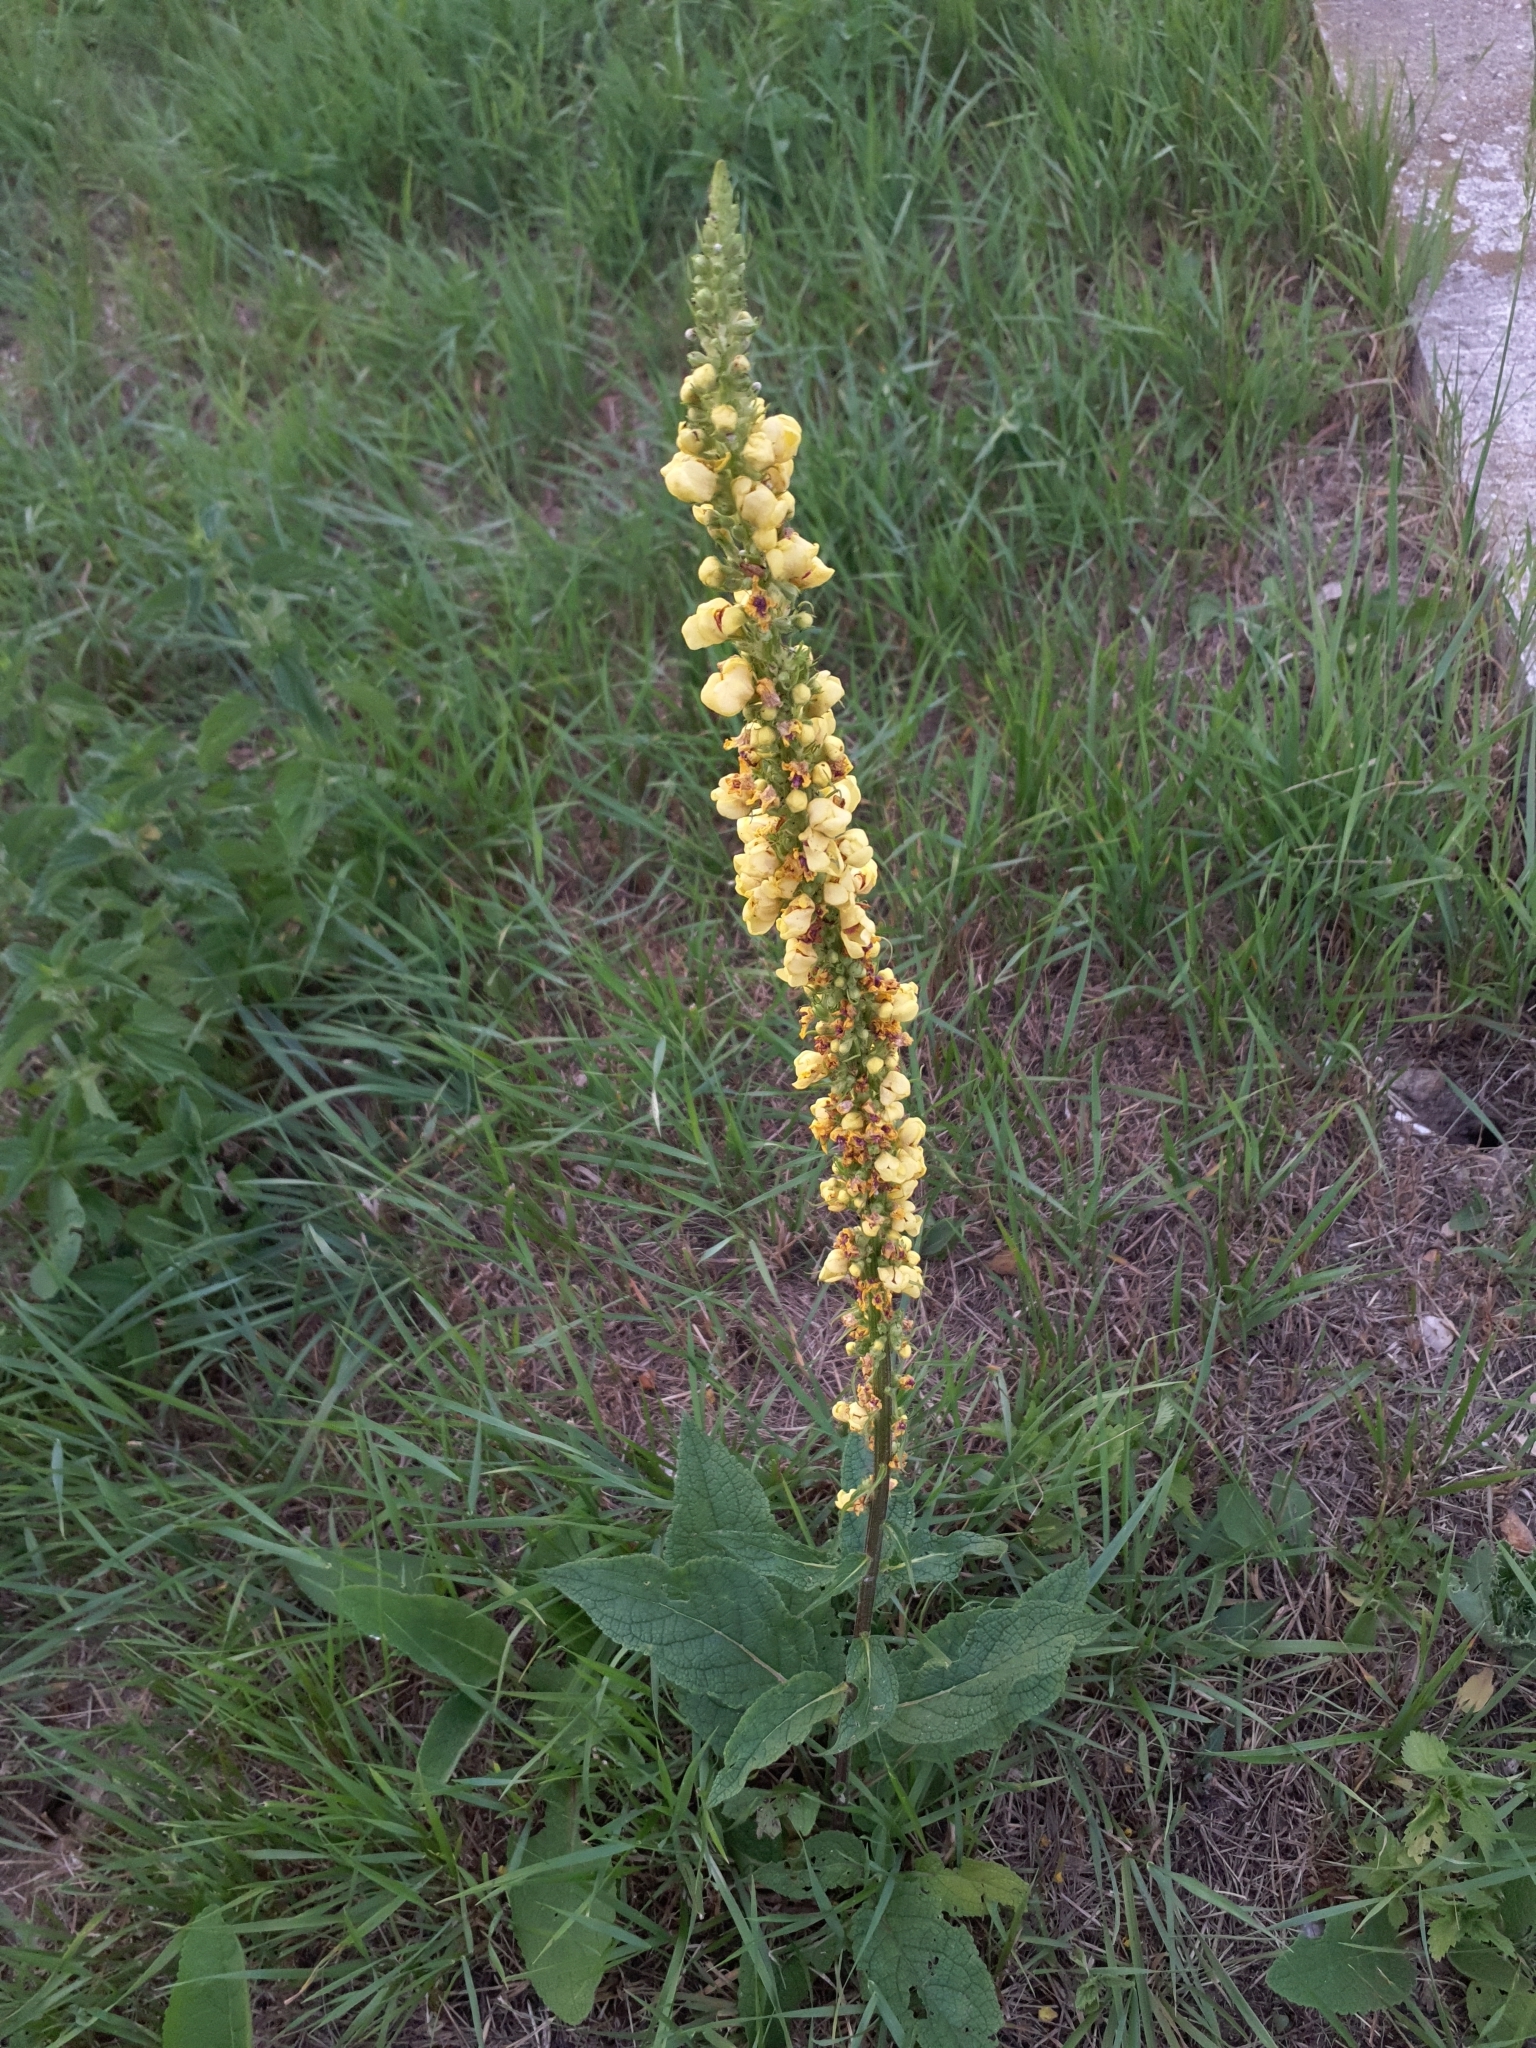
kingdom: Plantae
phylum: Tracheophyta
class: Magnoliopsida
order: Lamiales
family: Scrophulariaceae
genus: Verbascum
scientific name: Verbascum nigrum
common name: Dark mullein
